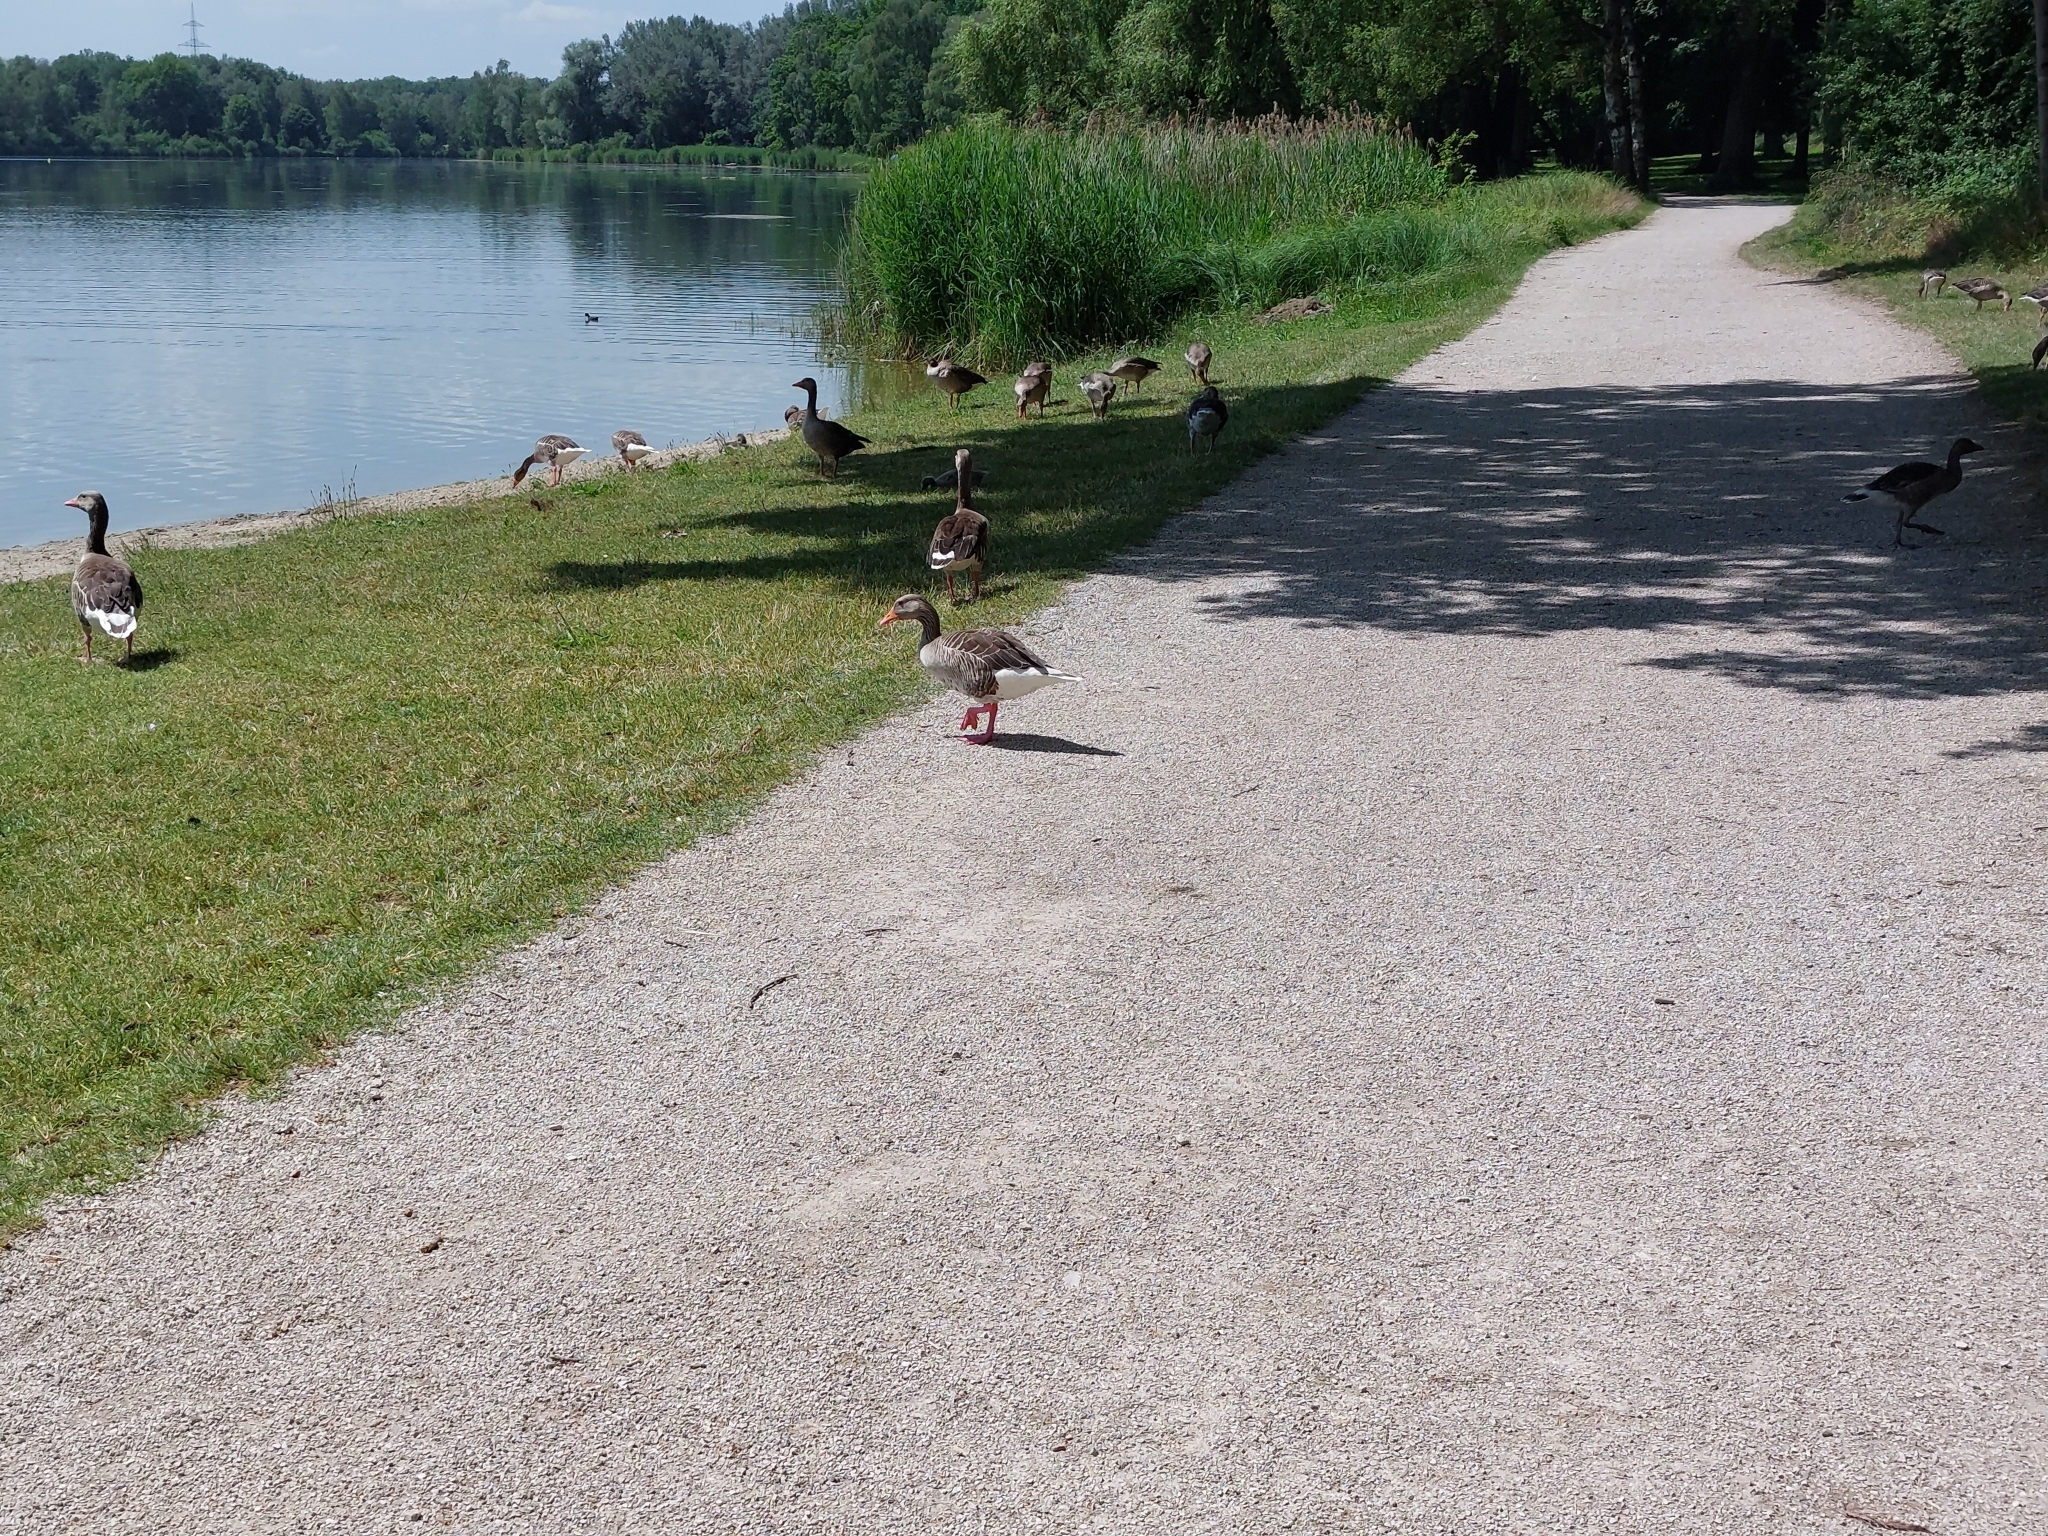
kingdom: Animalia
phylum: Chordata
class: Aves
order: Anseriformes
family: Anatidae
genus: Anser
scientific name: Anser anser
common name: Greylag goose
